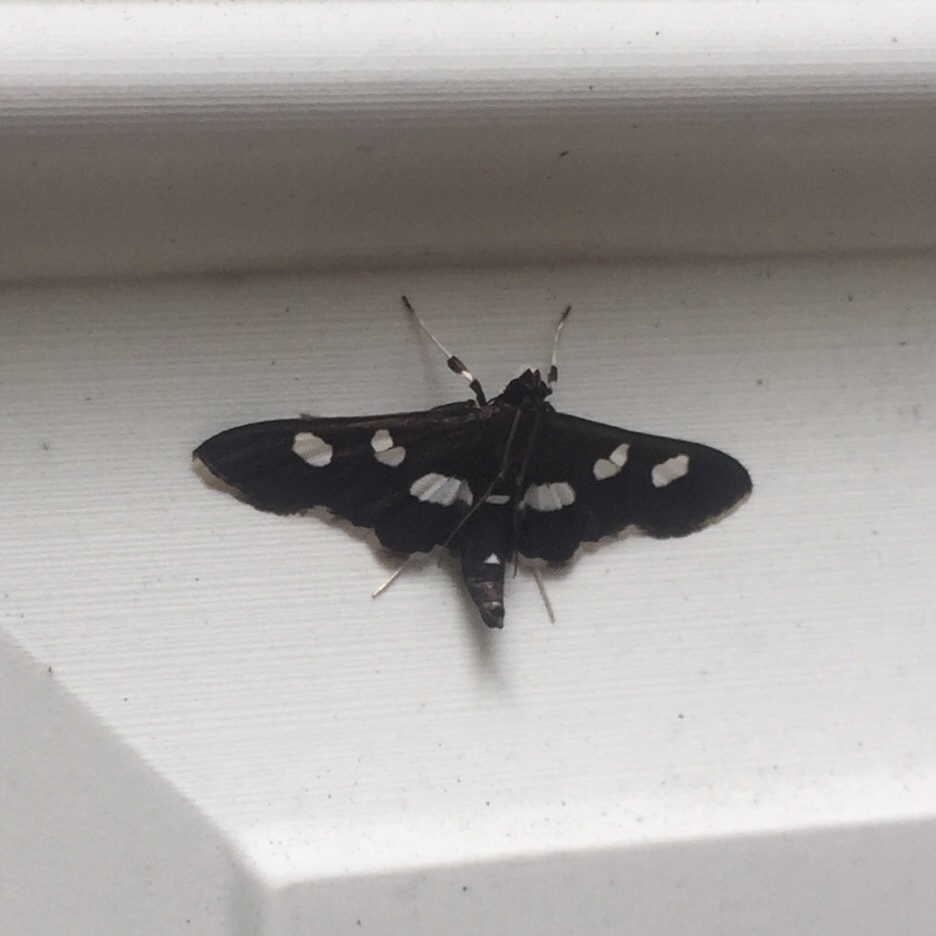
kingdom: Animalia
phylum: Arthropoda
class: Insecta
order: Lepidoptera
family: Crambidae
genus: Desmia
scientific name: Desmia
